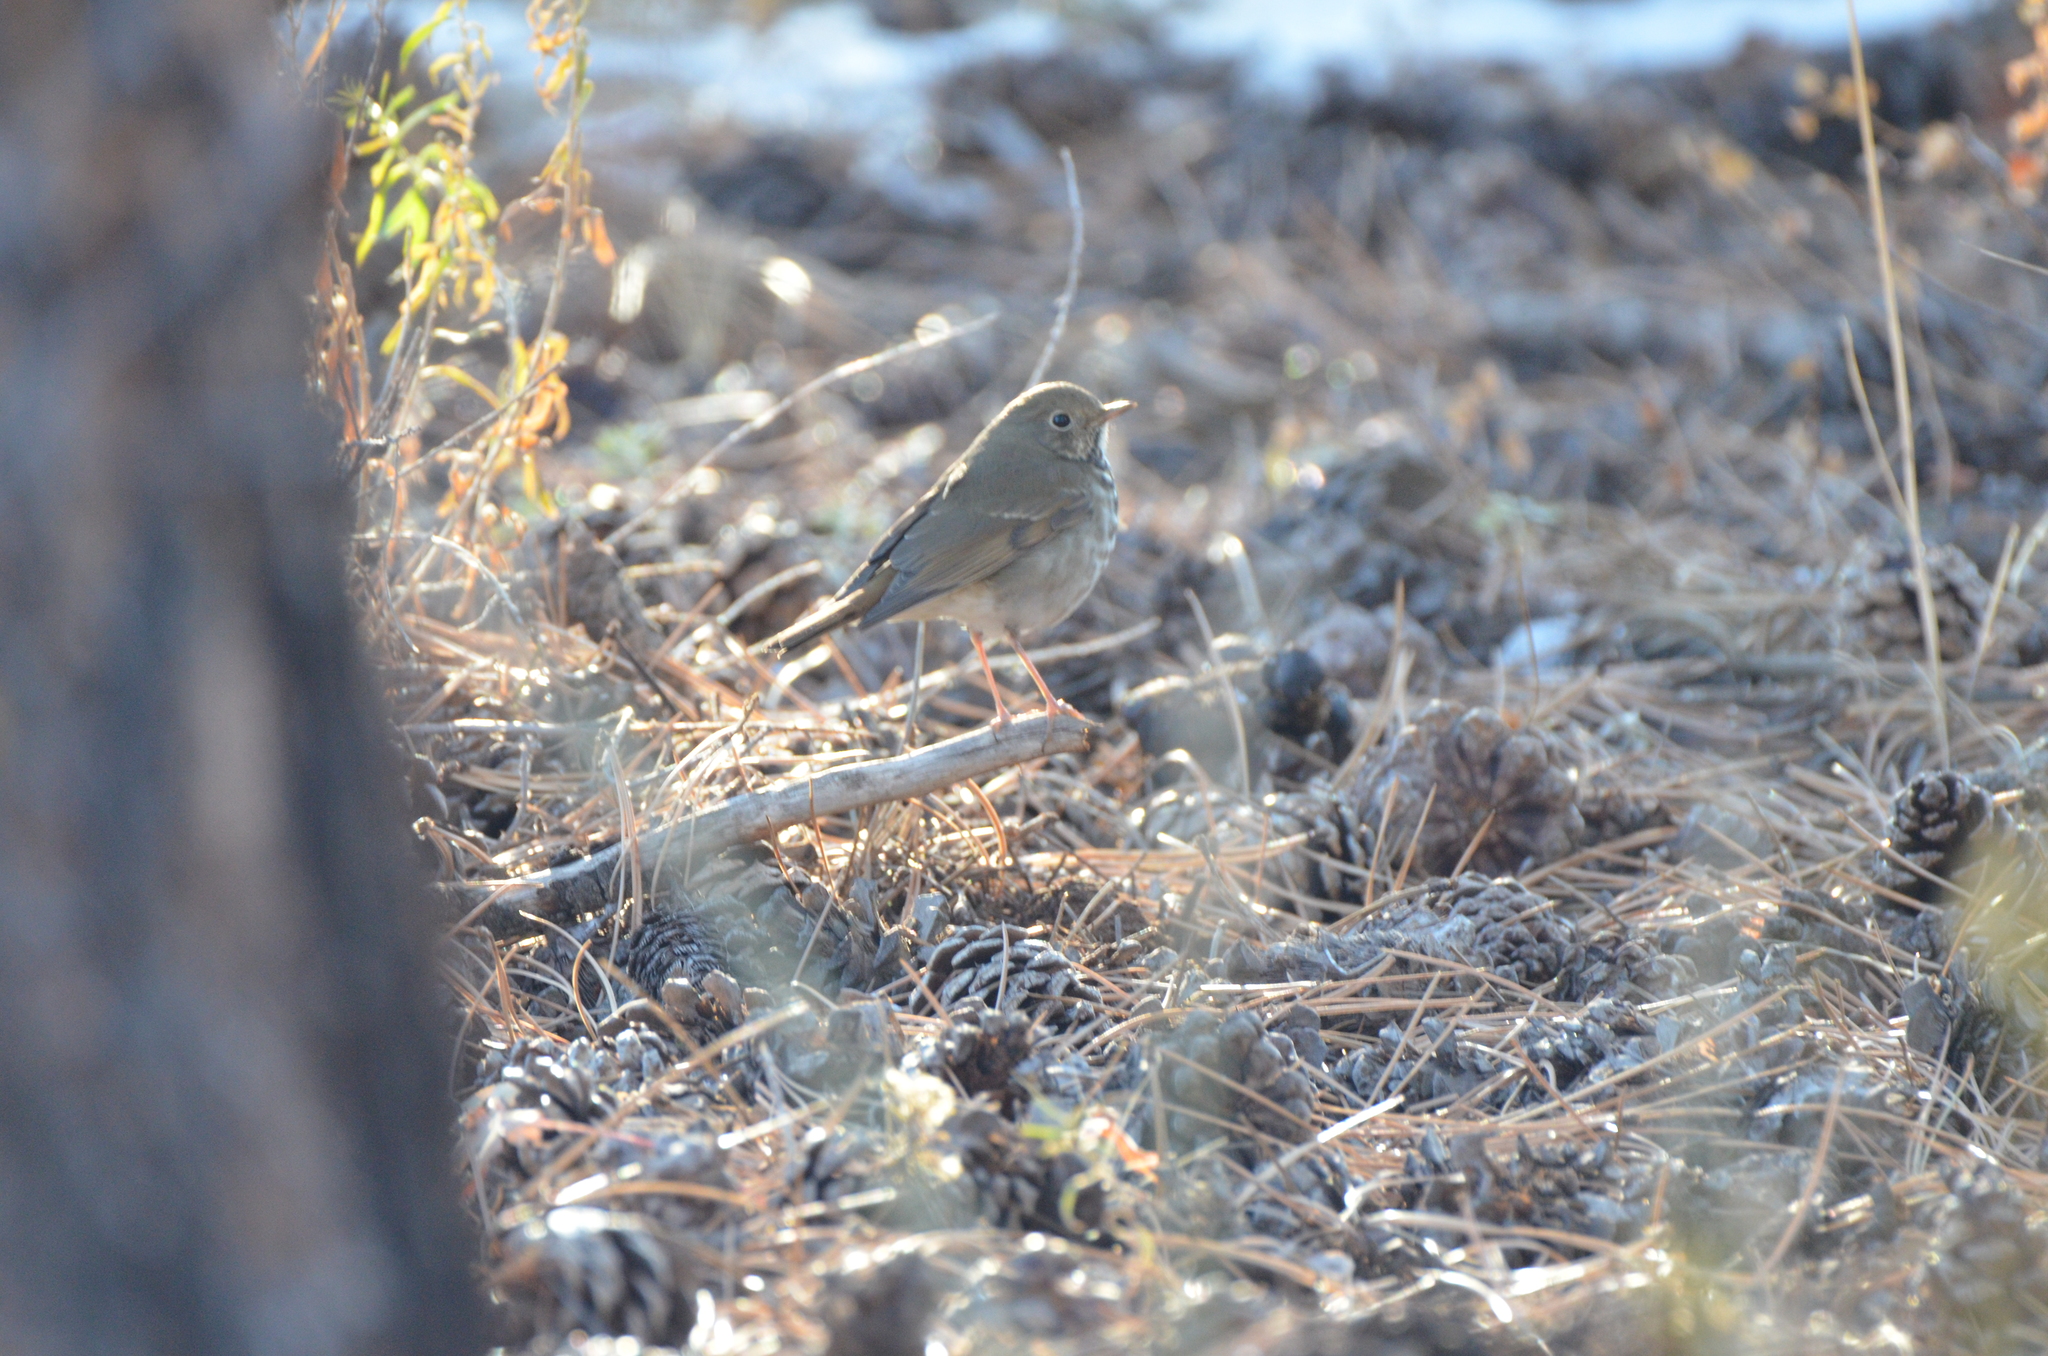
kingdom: Animalia
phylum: Chordata
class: Aves
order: Passeriformes
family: Turdidae
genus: Catharus
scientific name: Catharus guttatus
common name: Hermit thrush
